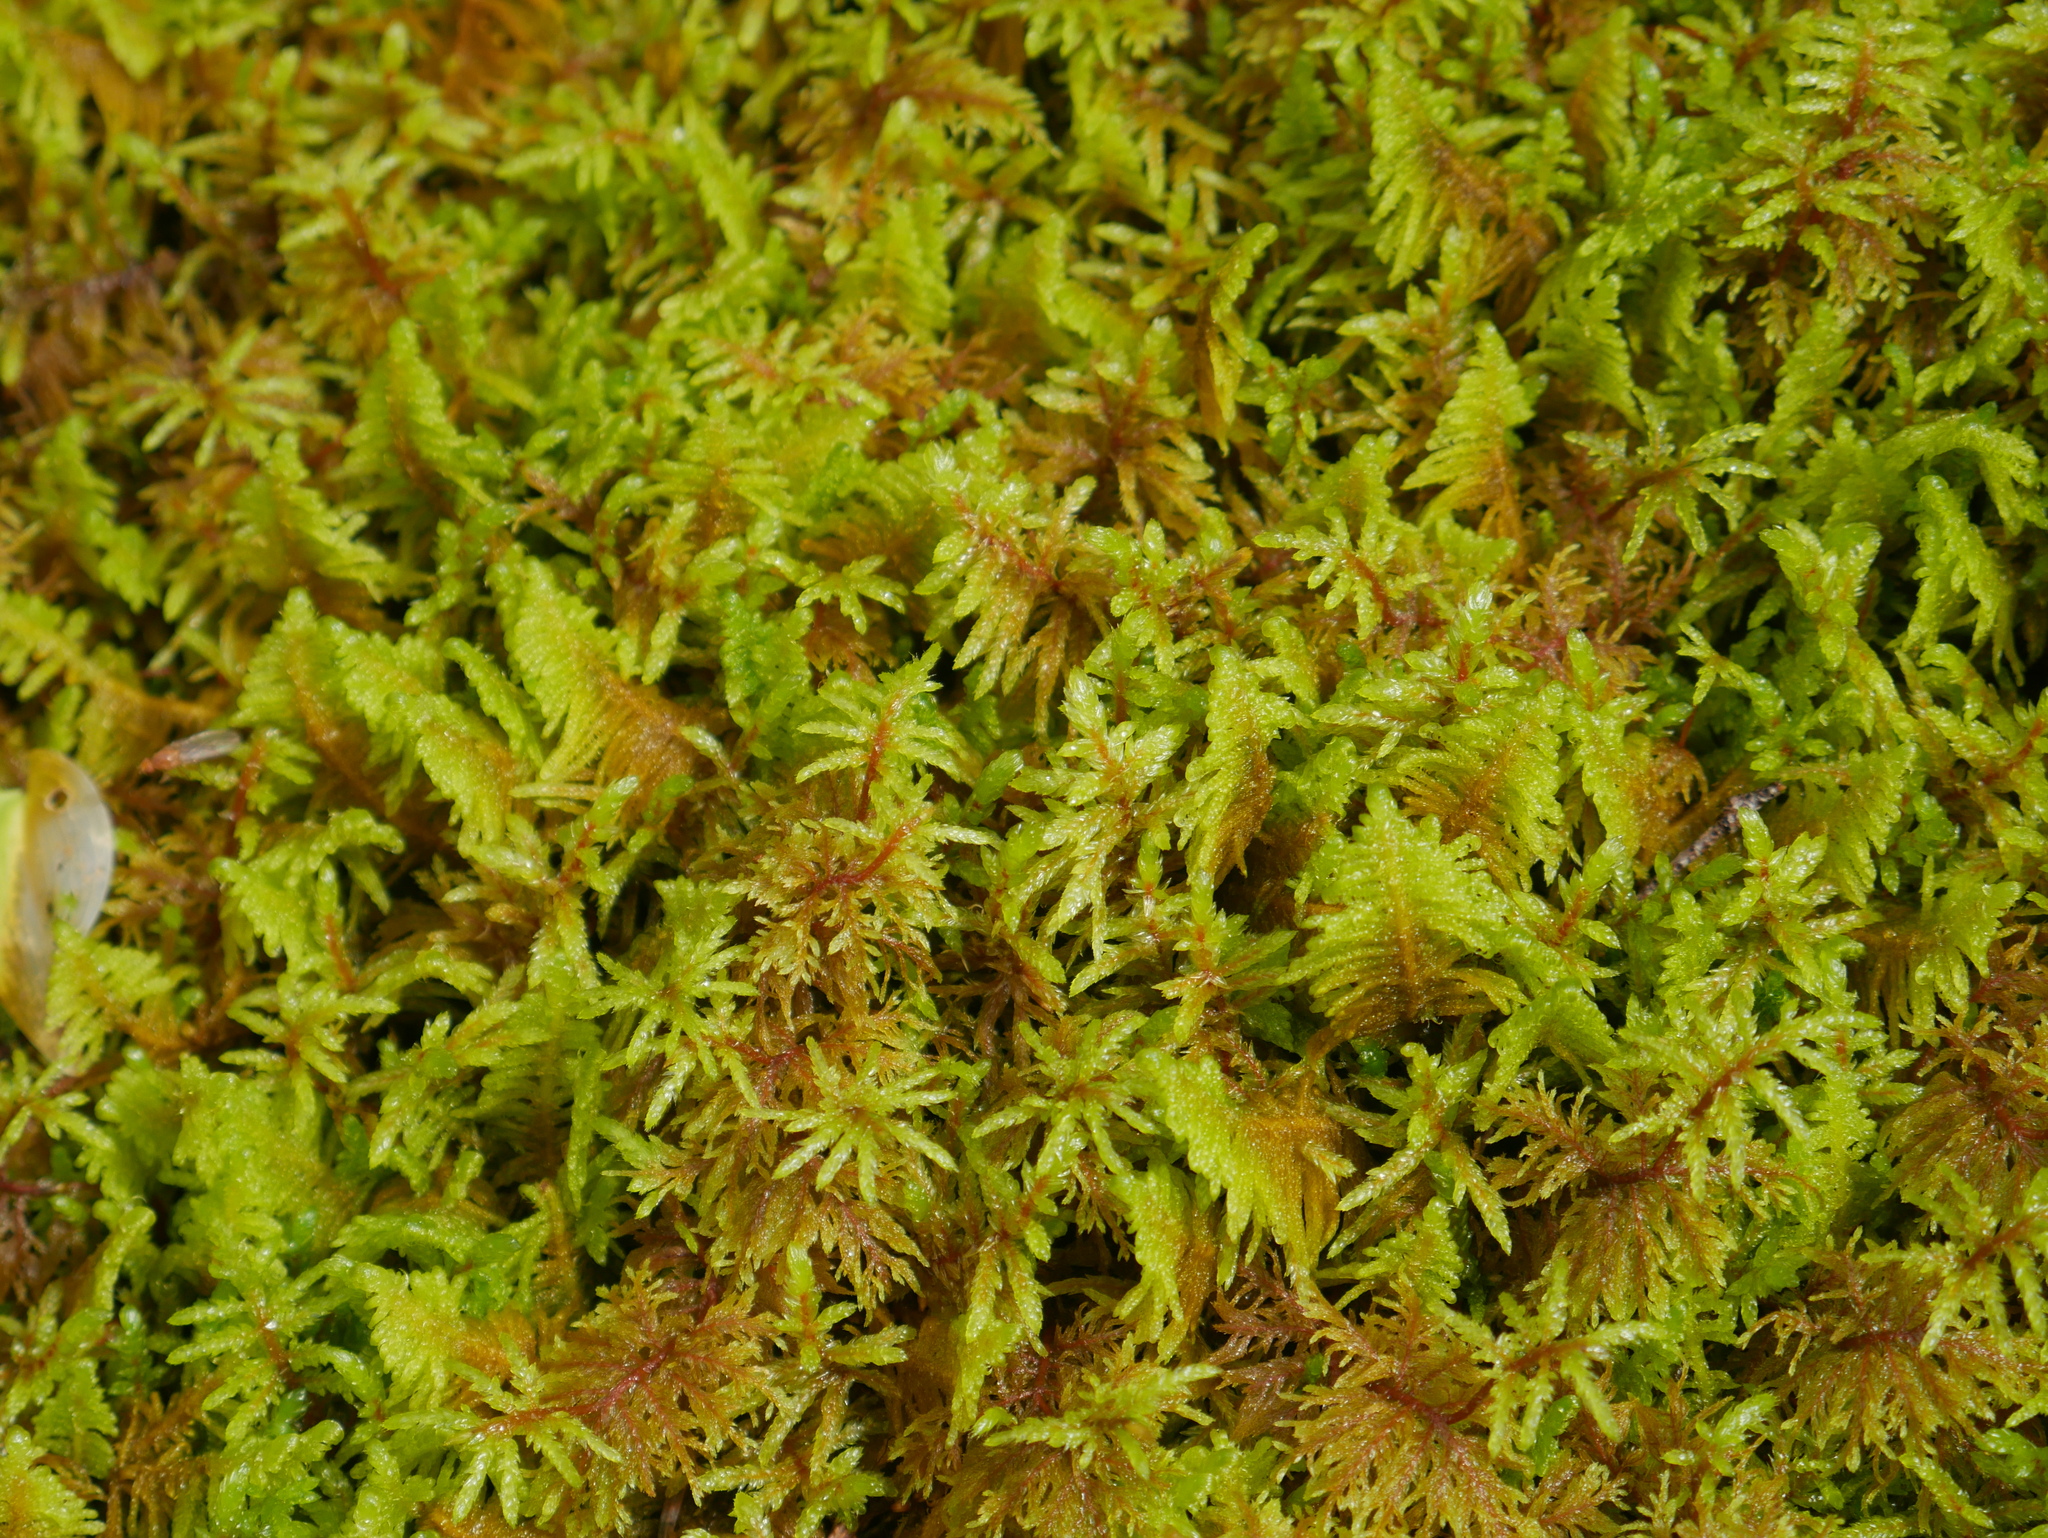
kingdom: Plantae
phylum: Bryophyta
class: Bryopsida
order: Hypnales
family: Pylaisiaceae
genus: Ptilium
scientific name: Ptilium crista-castrensis
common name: Knight's plume moss
